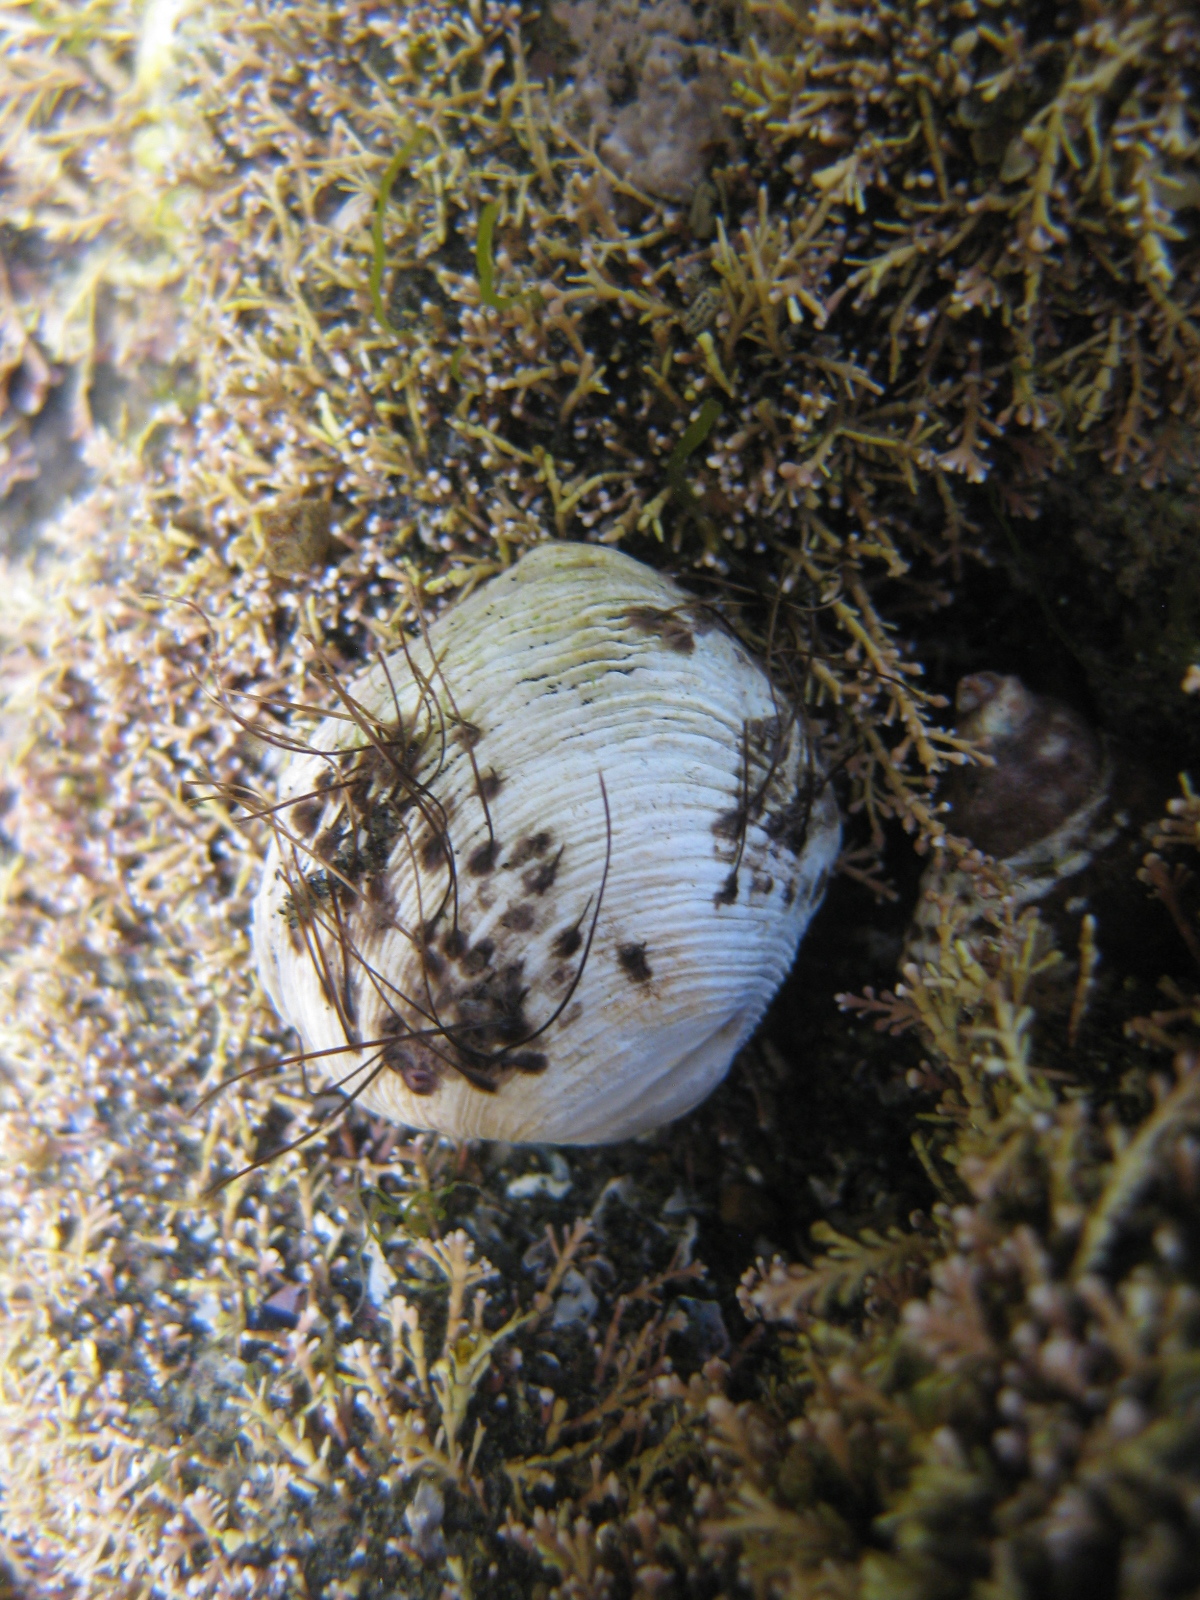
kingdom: Animalia
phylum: Mollusca
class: Bivalvia
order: Venerida
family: Veneridae
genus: Irus
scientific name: Irus reflexus
